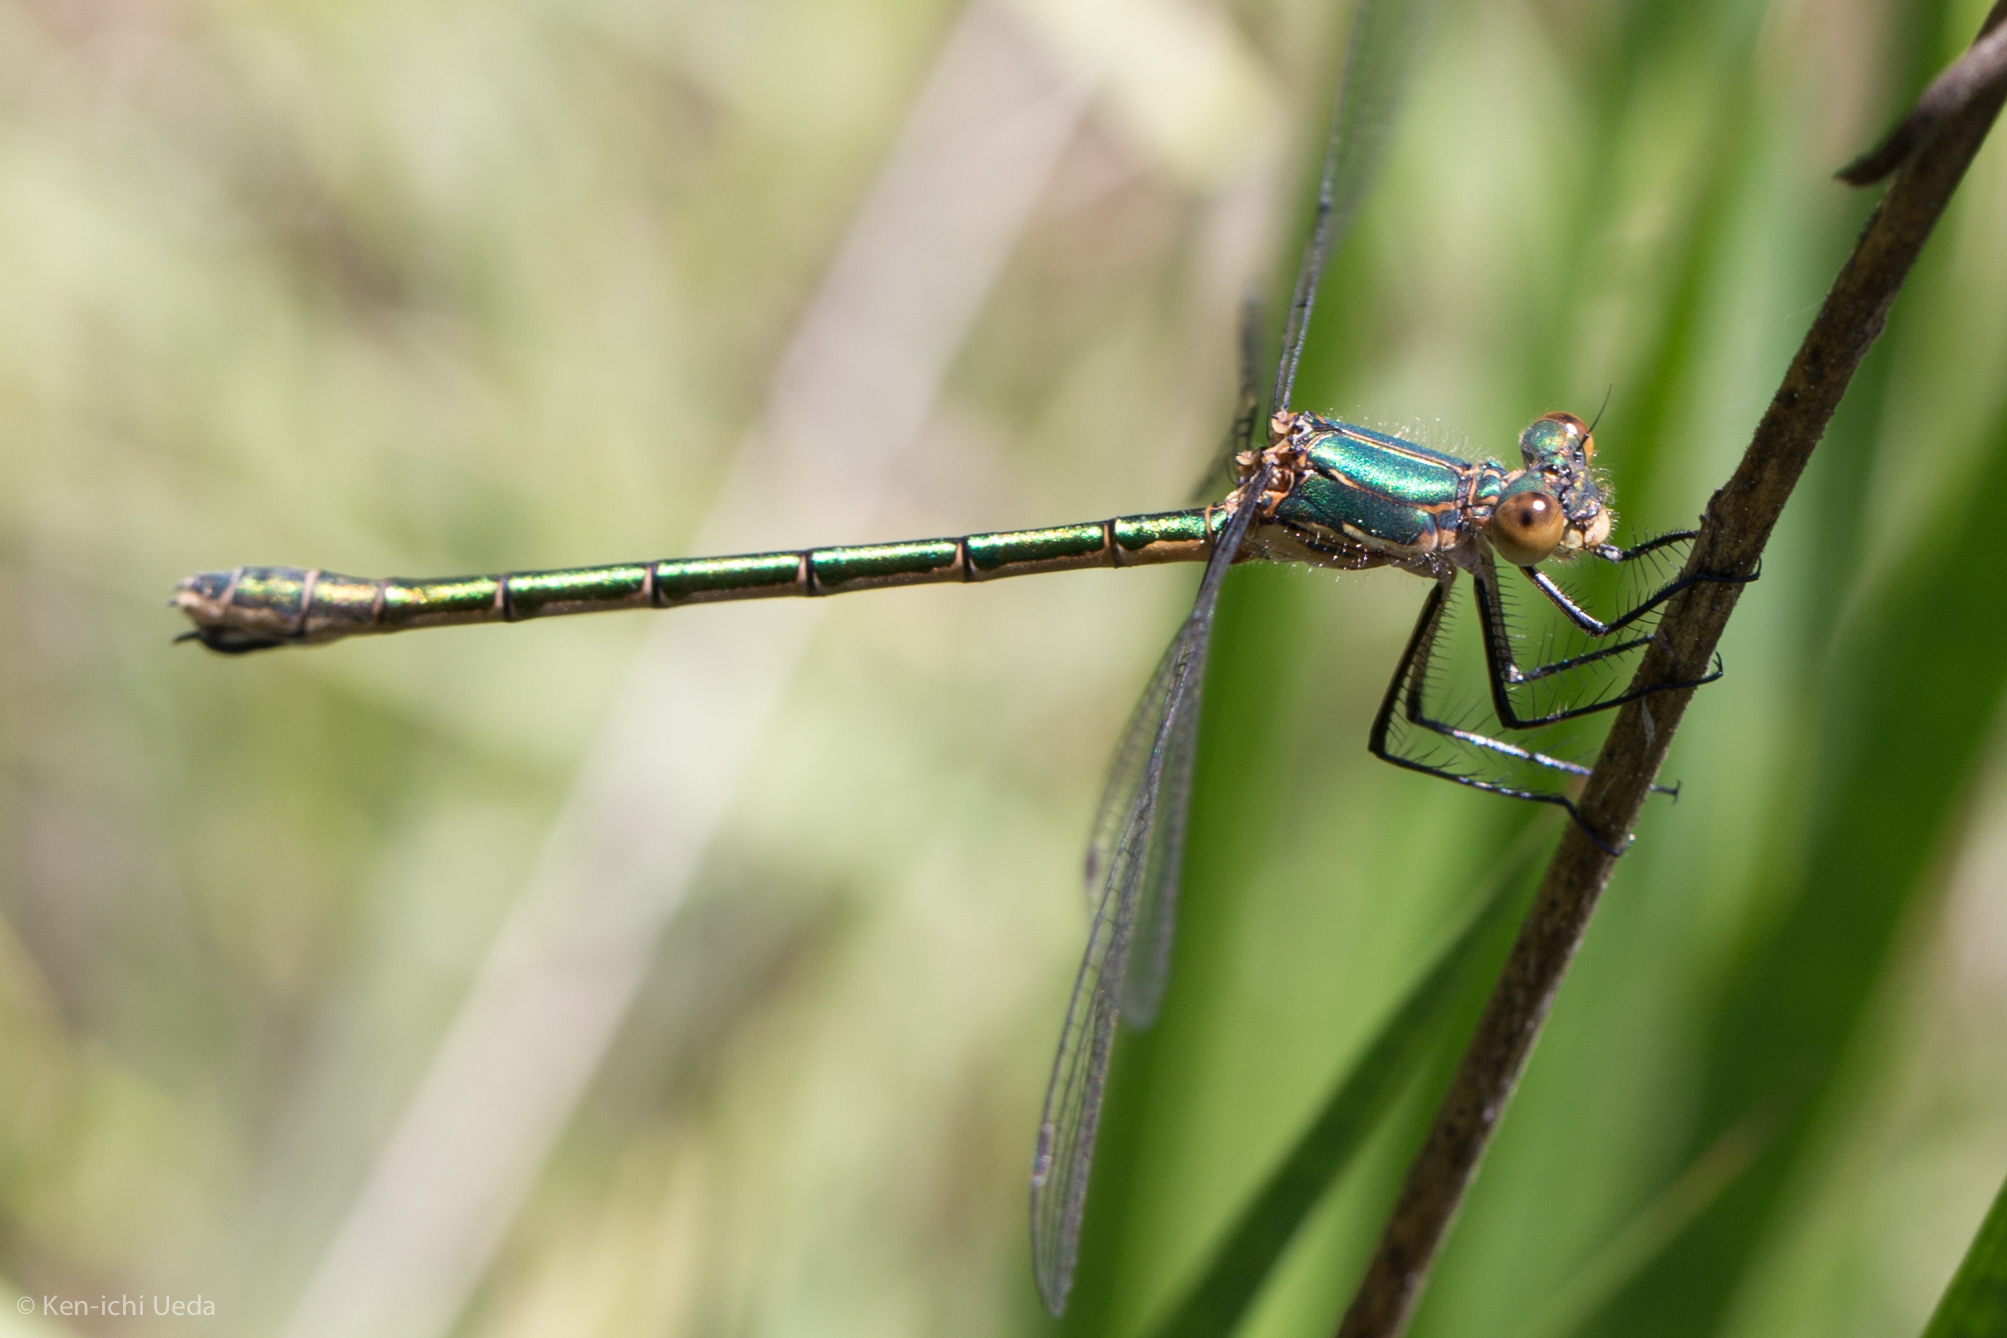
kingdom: Animalia
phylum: Arthropoda
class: Insecta
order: Odonata
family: Lestidae
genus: Lestes
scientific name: Lestes dryas
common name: Scarce emerald damselfly
